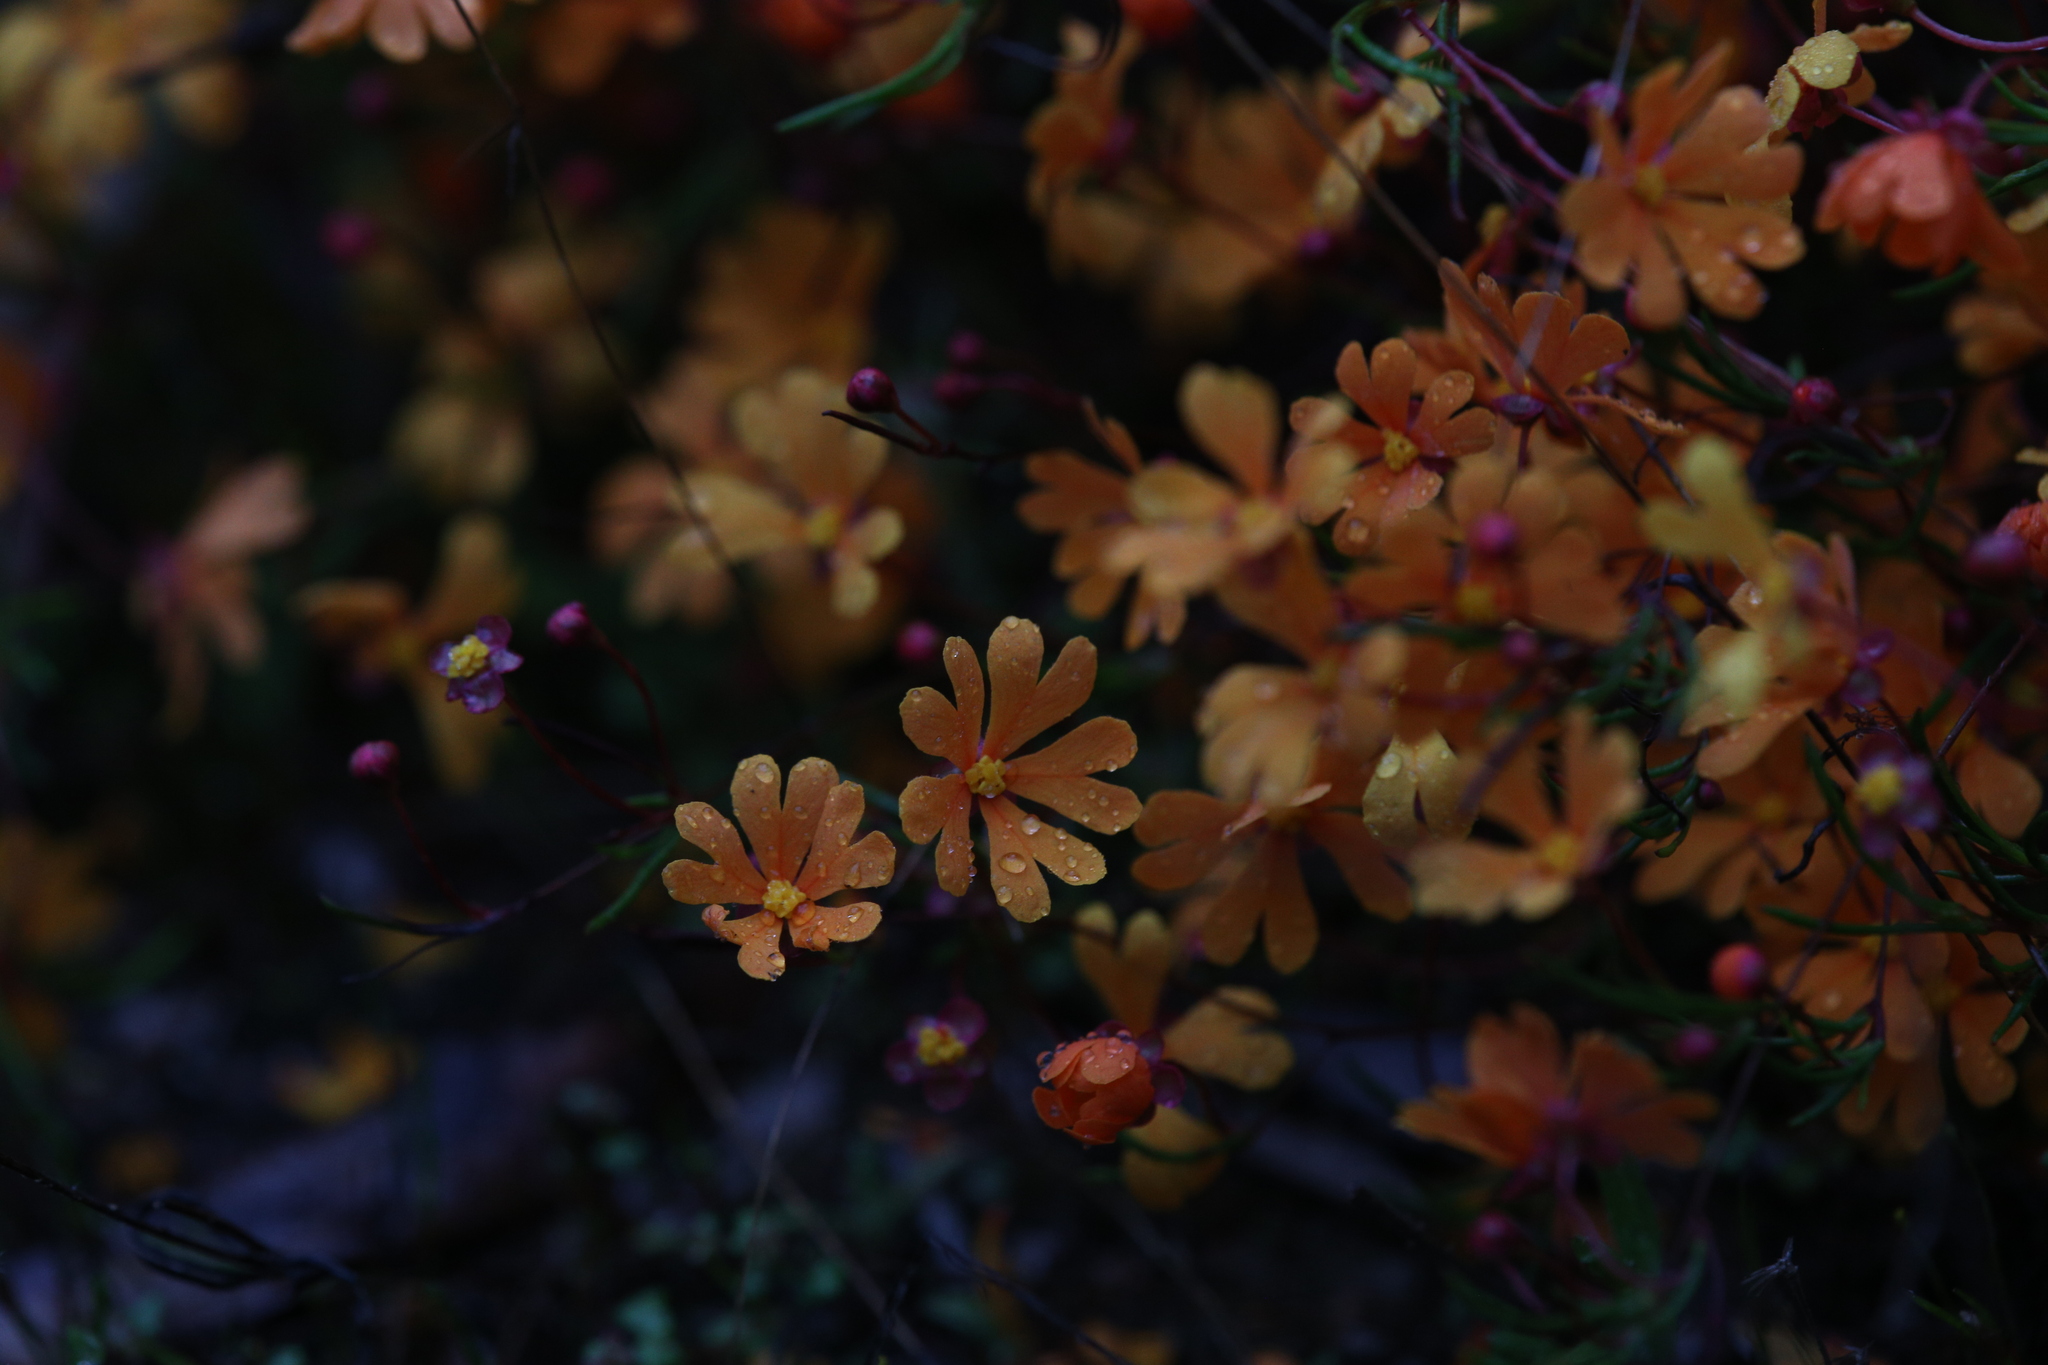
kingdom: Plantae
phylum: Tracheophyta
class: Magnoliopsida
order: Dilleniales
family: Dilleniaceae
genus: Hibbertia
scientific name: Hibbertia stellaris
